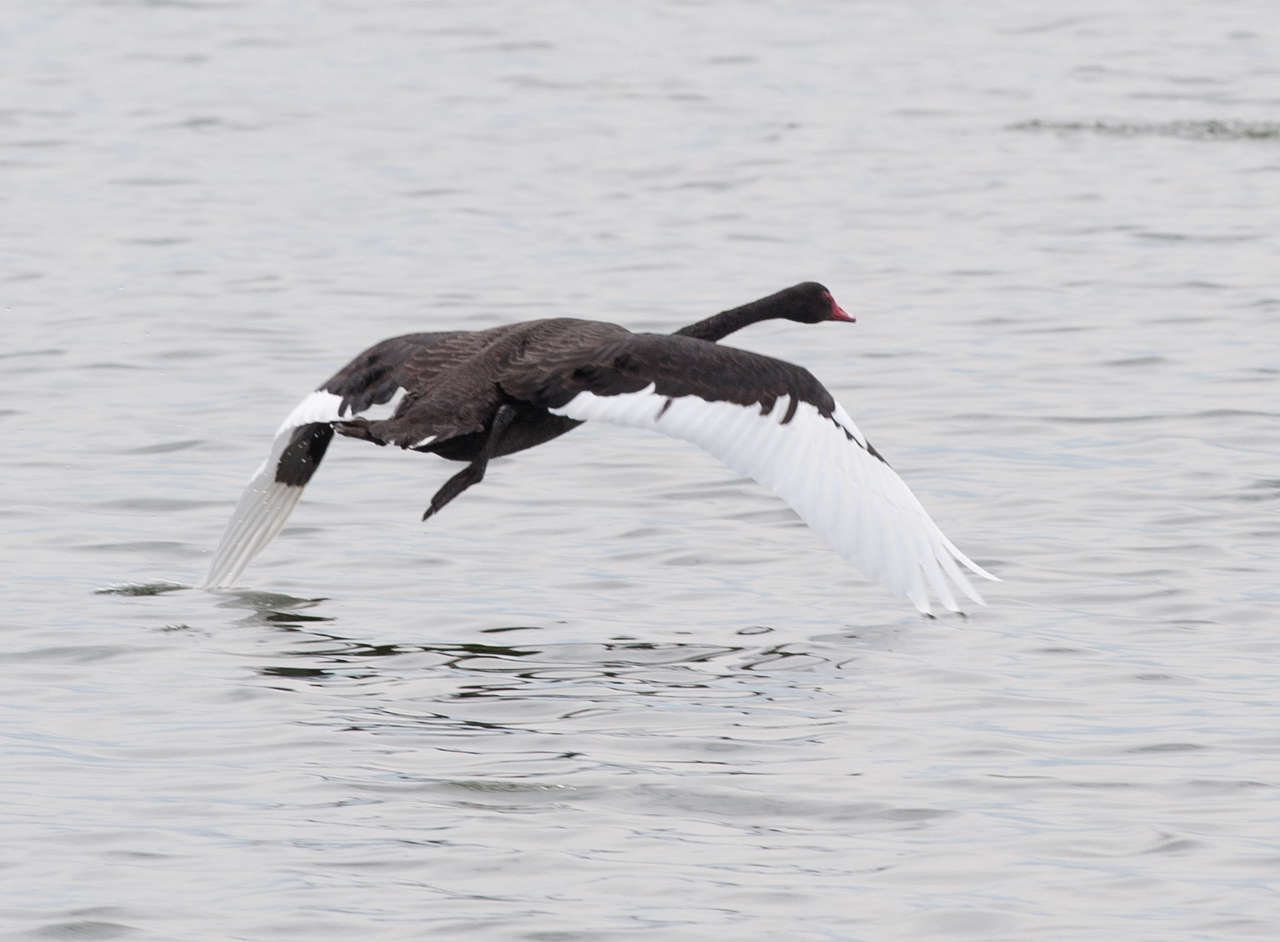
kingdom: Animalia
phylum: Chordata
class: Aves
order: Anseriformes
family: Anatidae
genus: Cygnus
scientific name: Cygnus atratus
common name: Black swan
